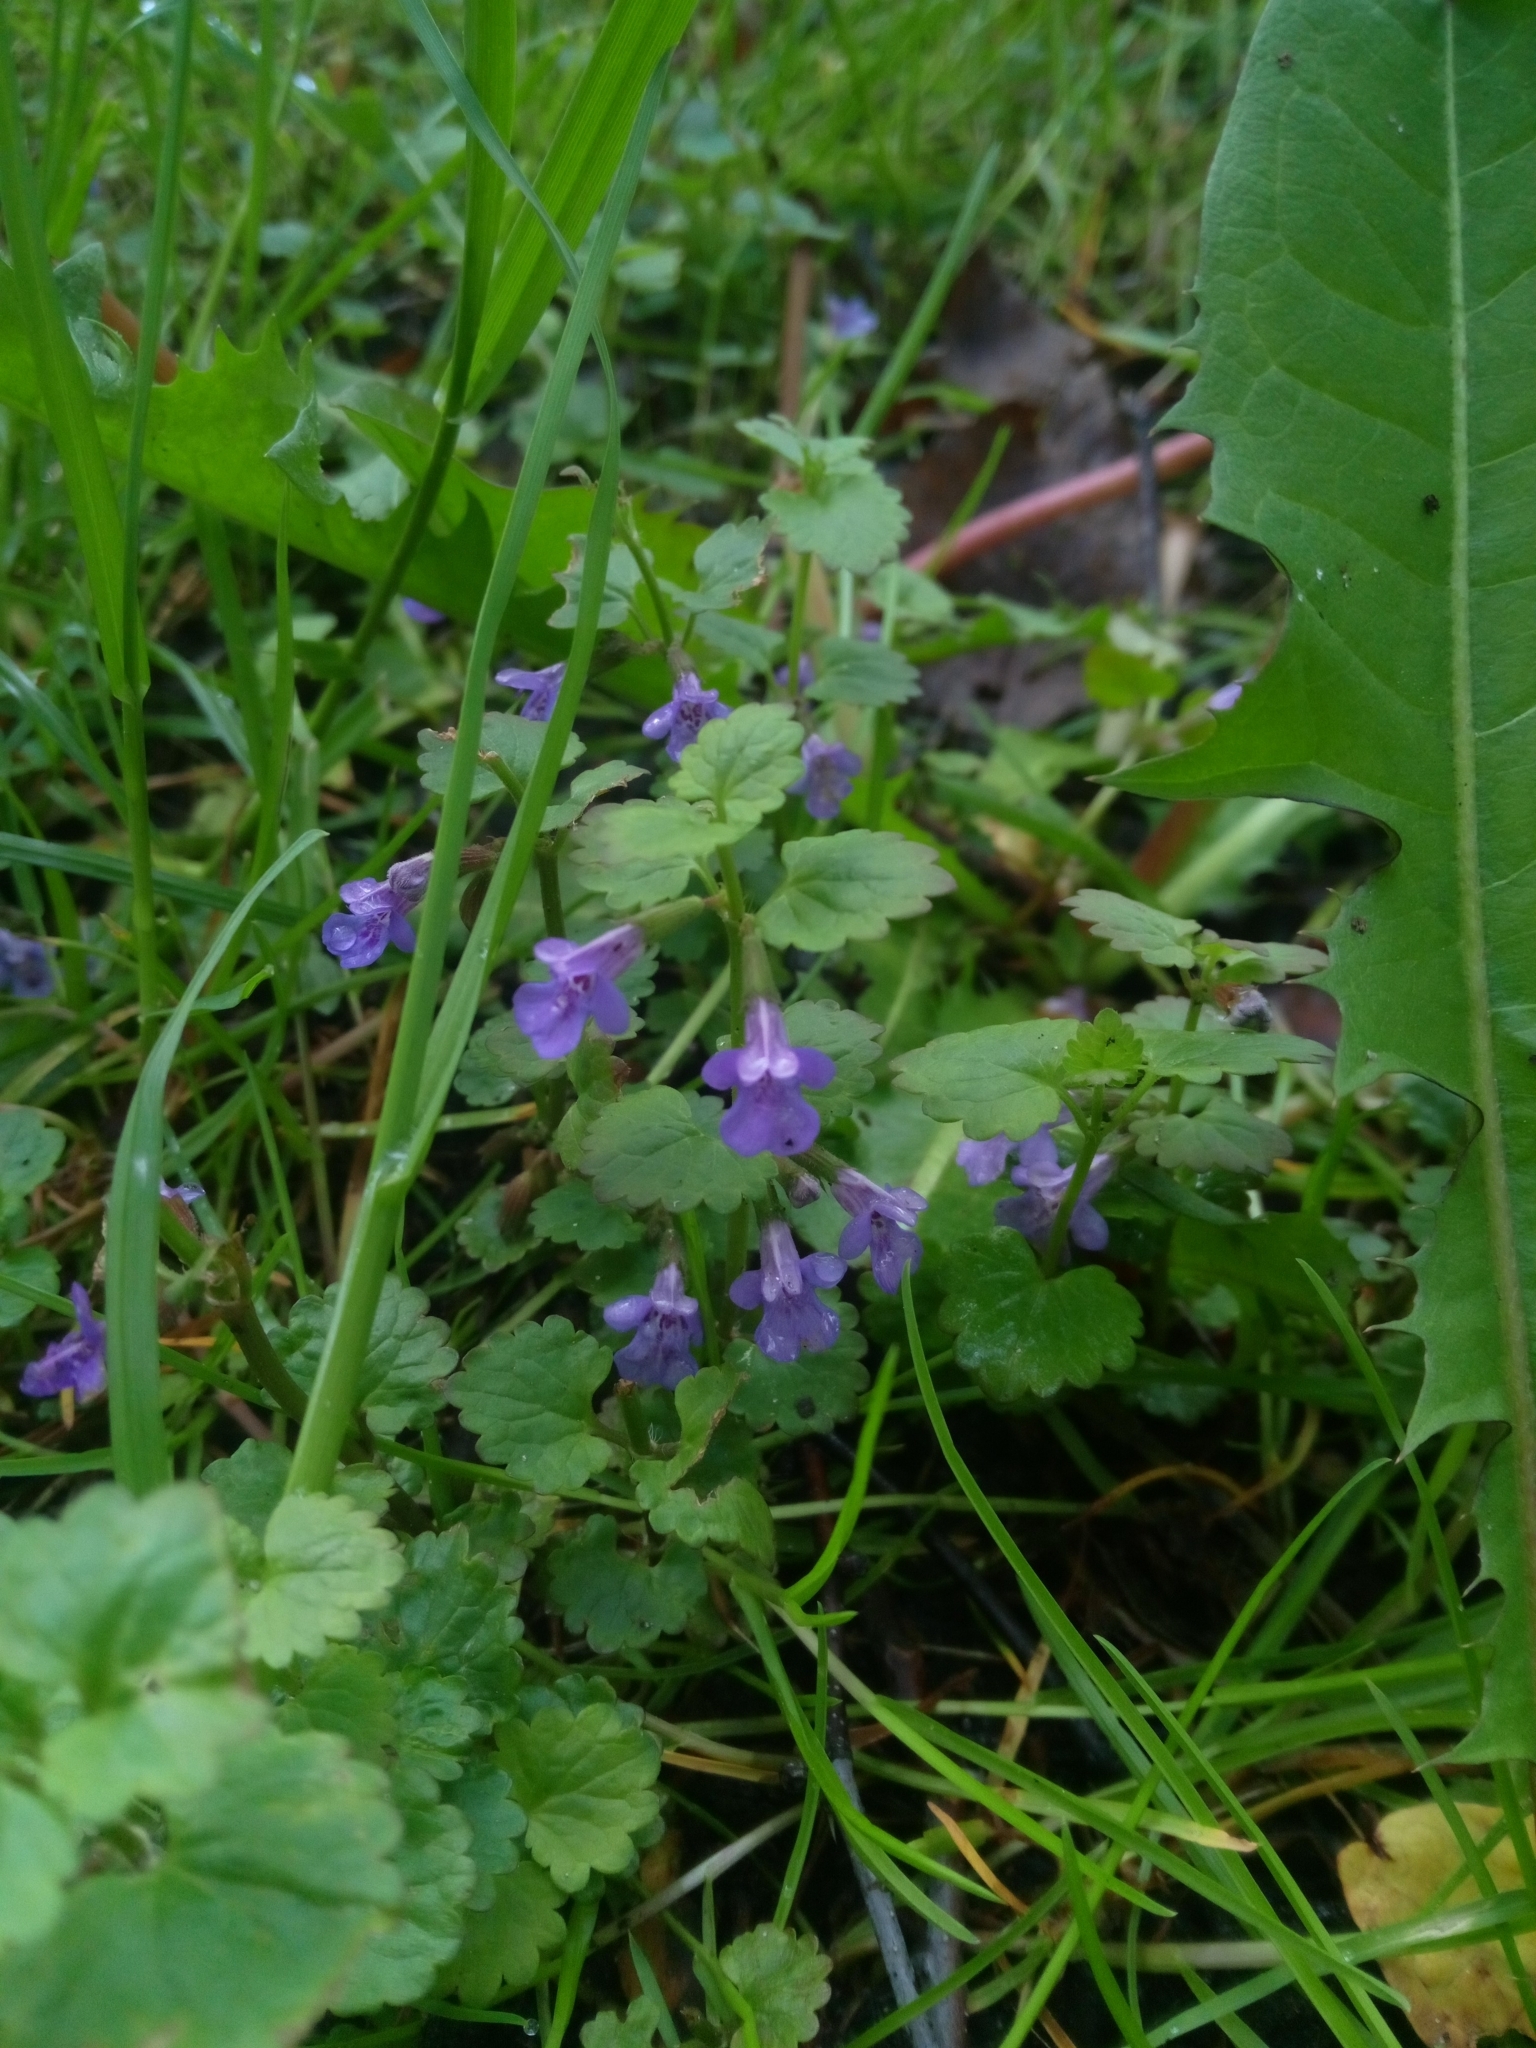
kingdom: Plantae
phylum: Tracheophyta
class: Magnoliopsida
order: Lamiales
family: Lamiaceae
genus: Glechoma
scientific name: Glechoma hederacea
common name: Ground ivy
